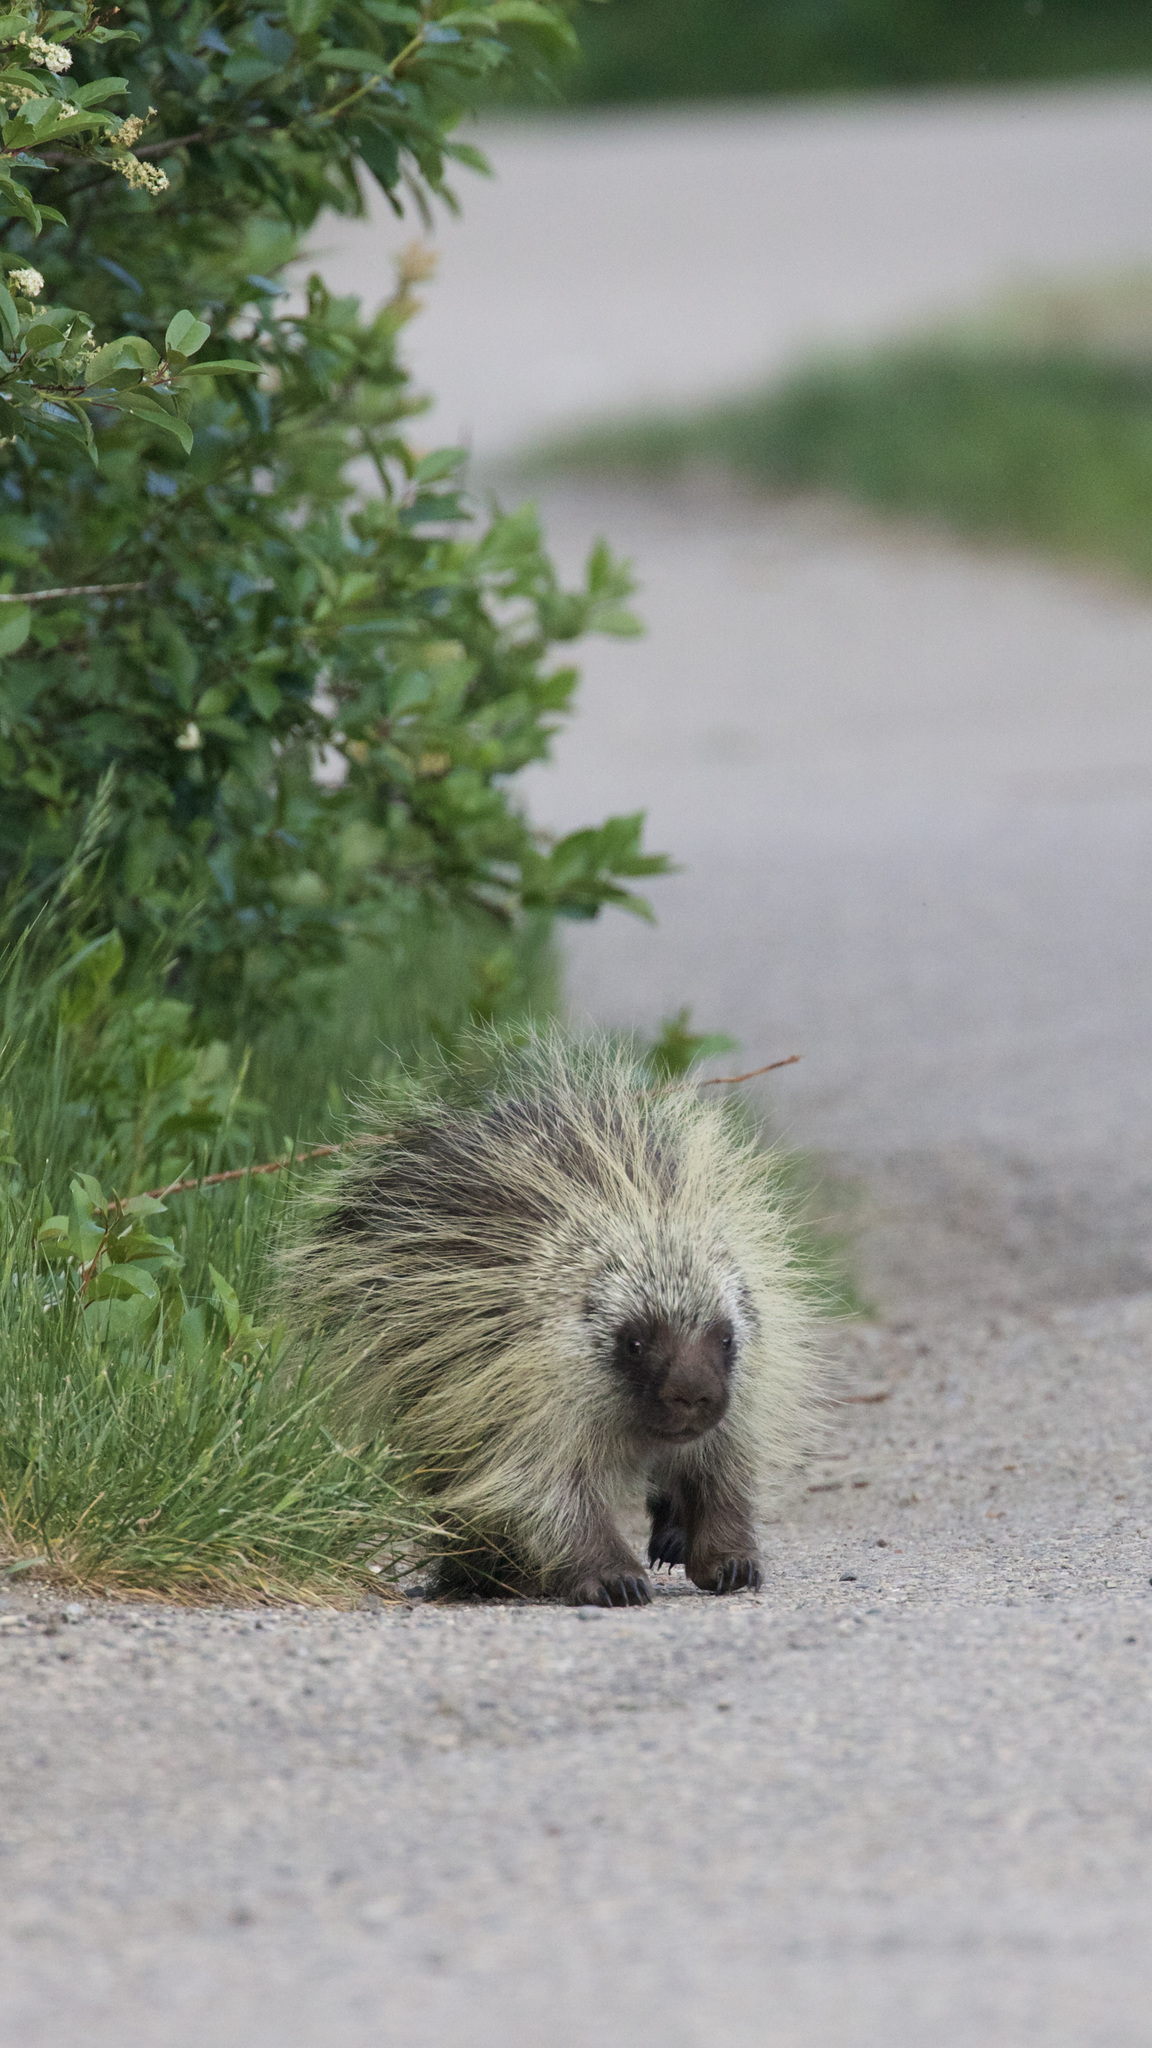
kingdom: Animalia
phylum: Chordata
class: Mammalia
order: Rodentia
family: Erethizontidae
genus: Erethizon
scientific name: Erethizon dorsatus
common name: North american porcupine
